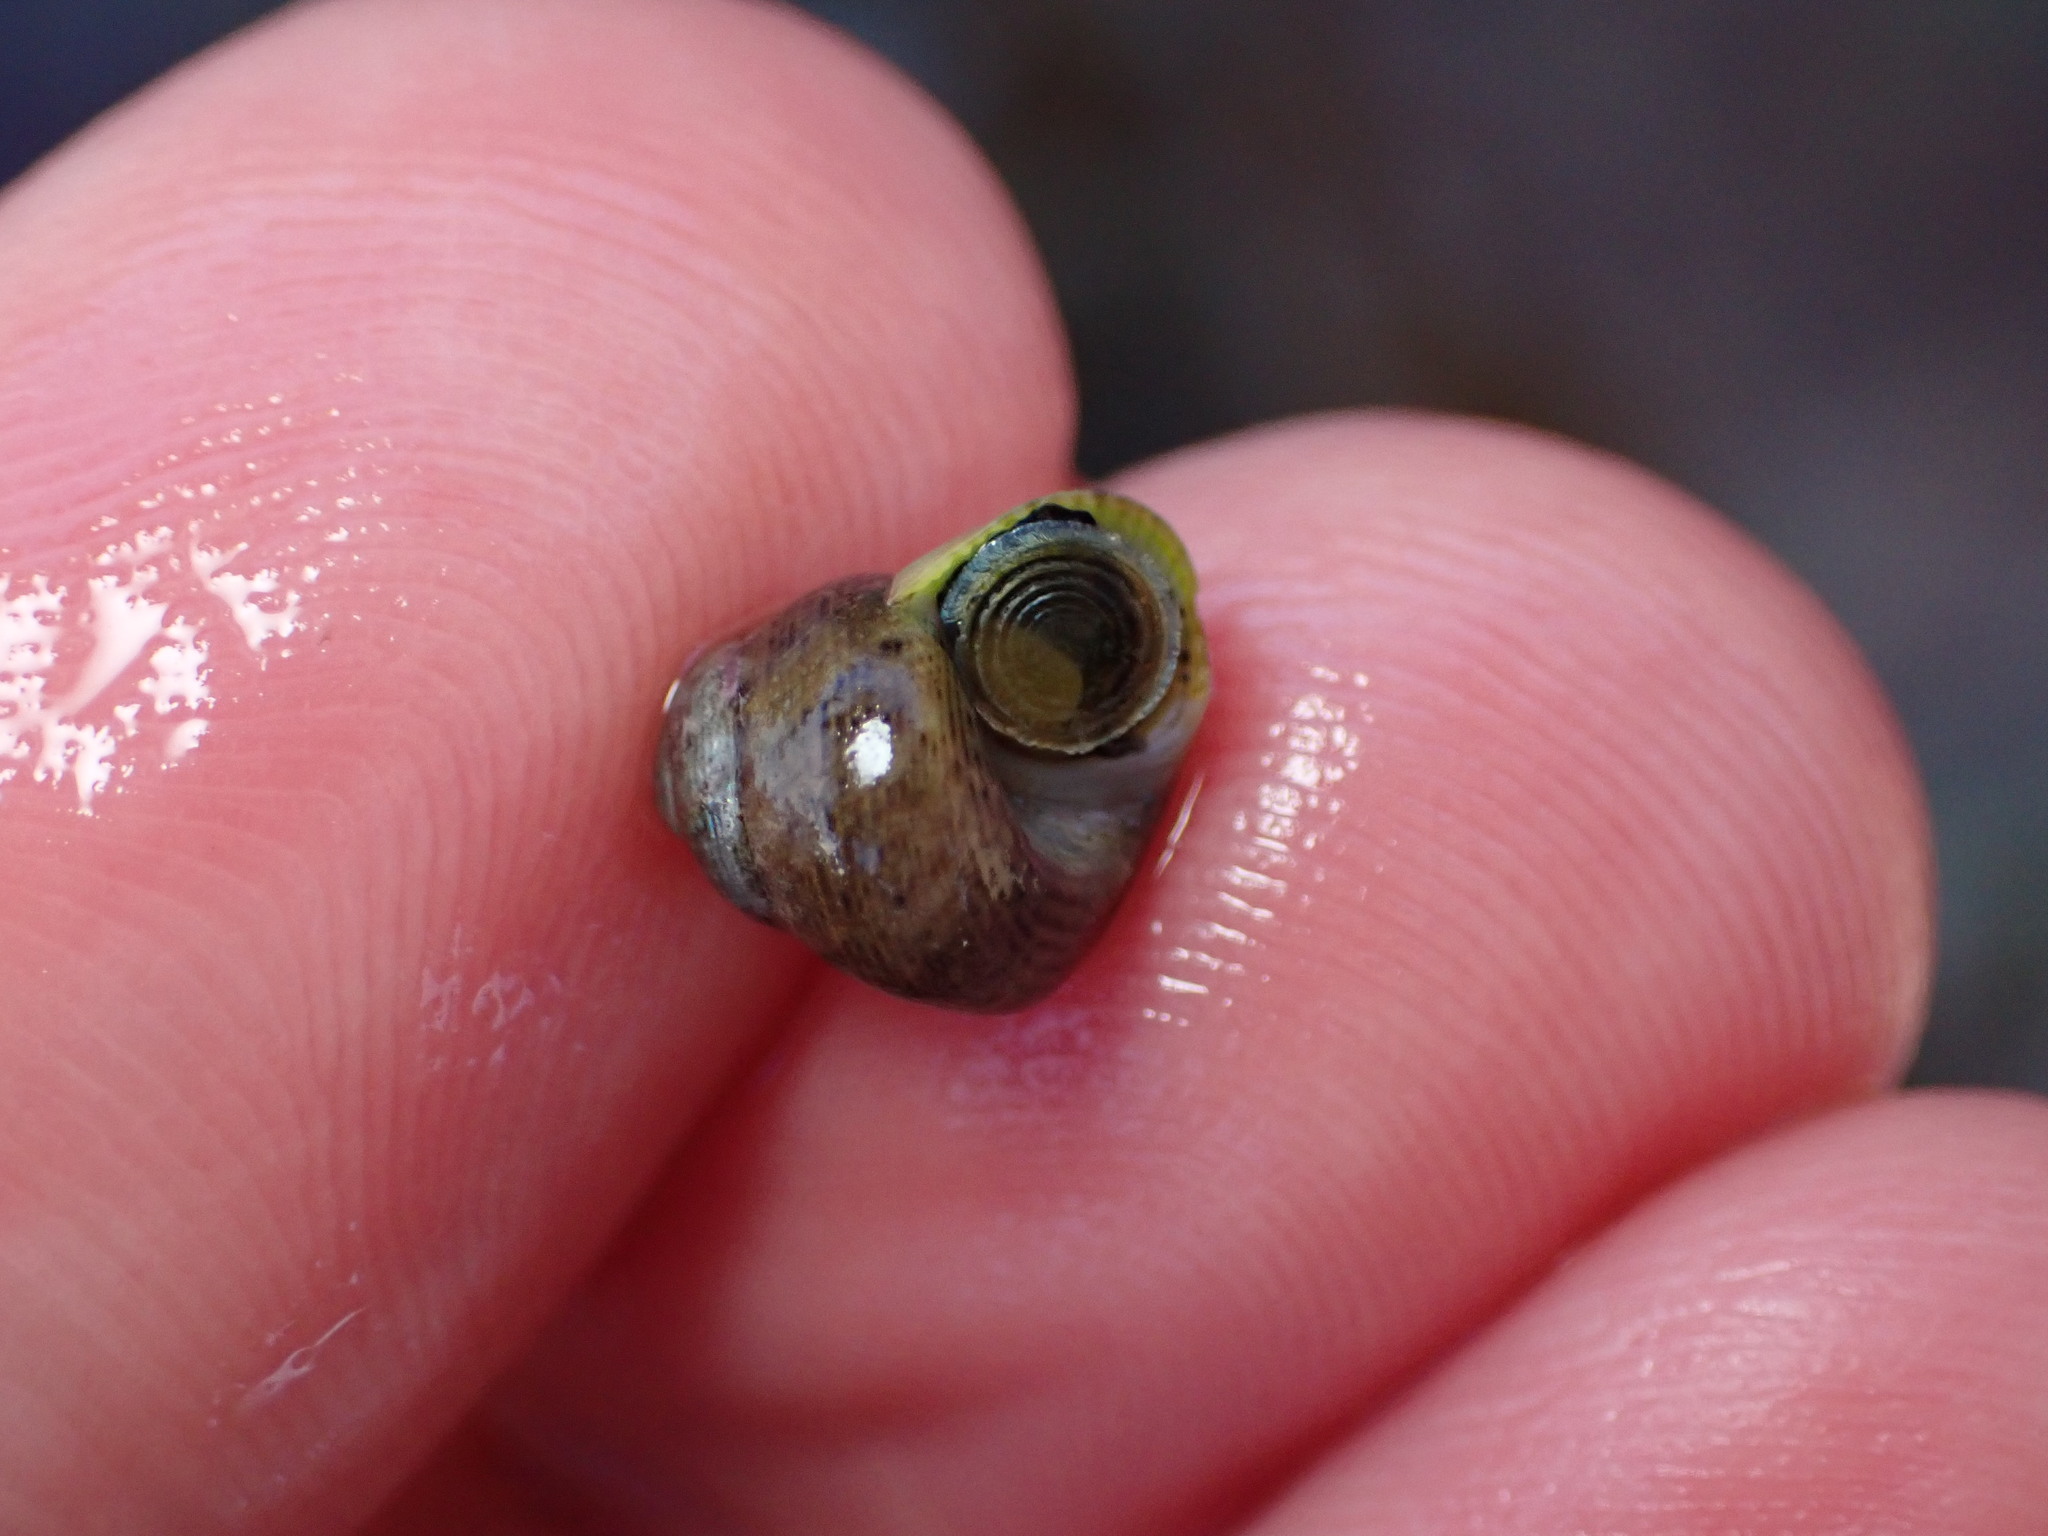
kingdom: Animalia
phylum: Mollusca
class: Gastropoda
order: Trochida
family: Trochidae
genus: Micrelenchus
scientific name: Micrelenchus tessellatus
